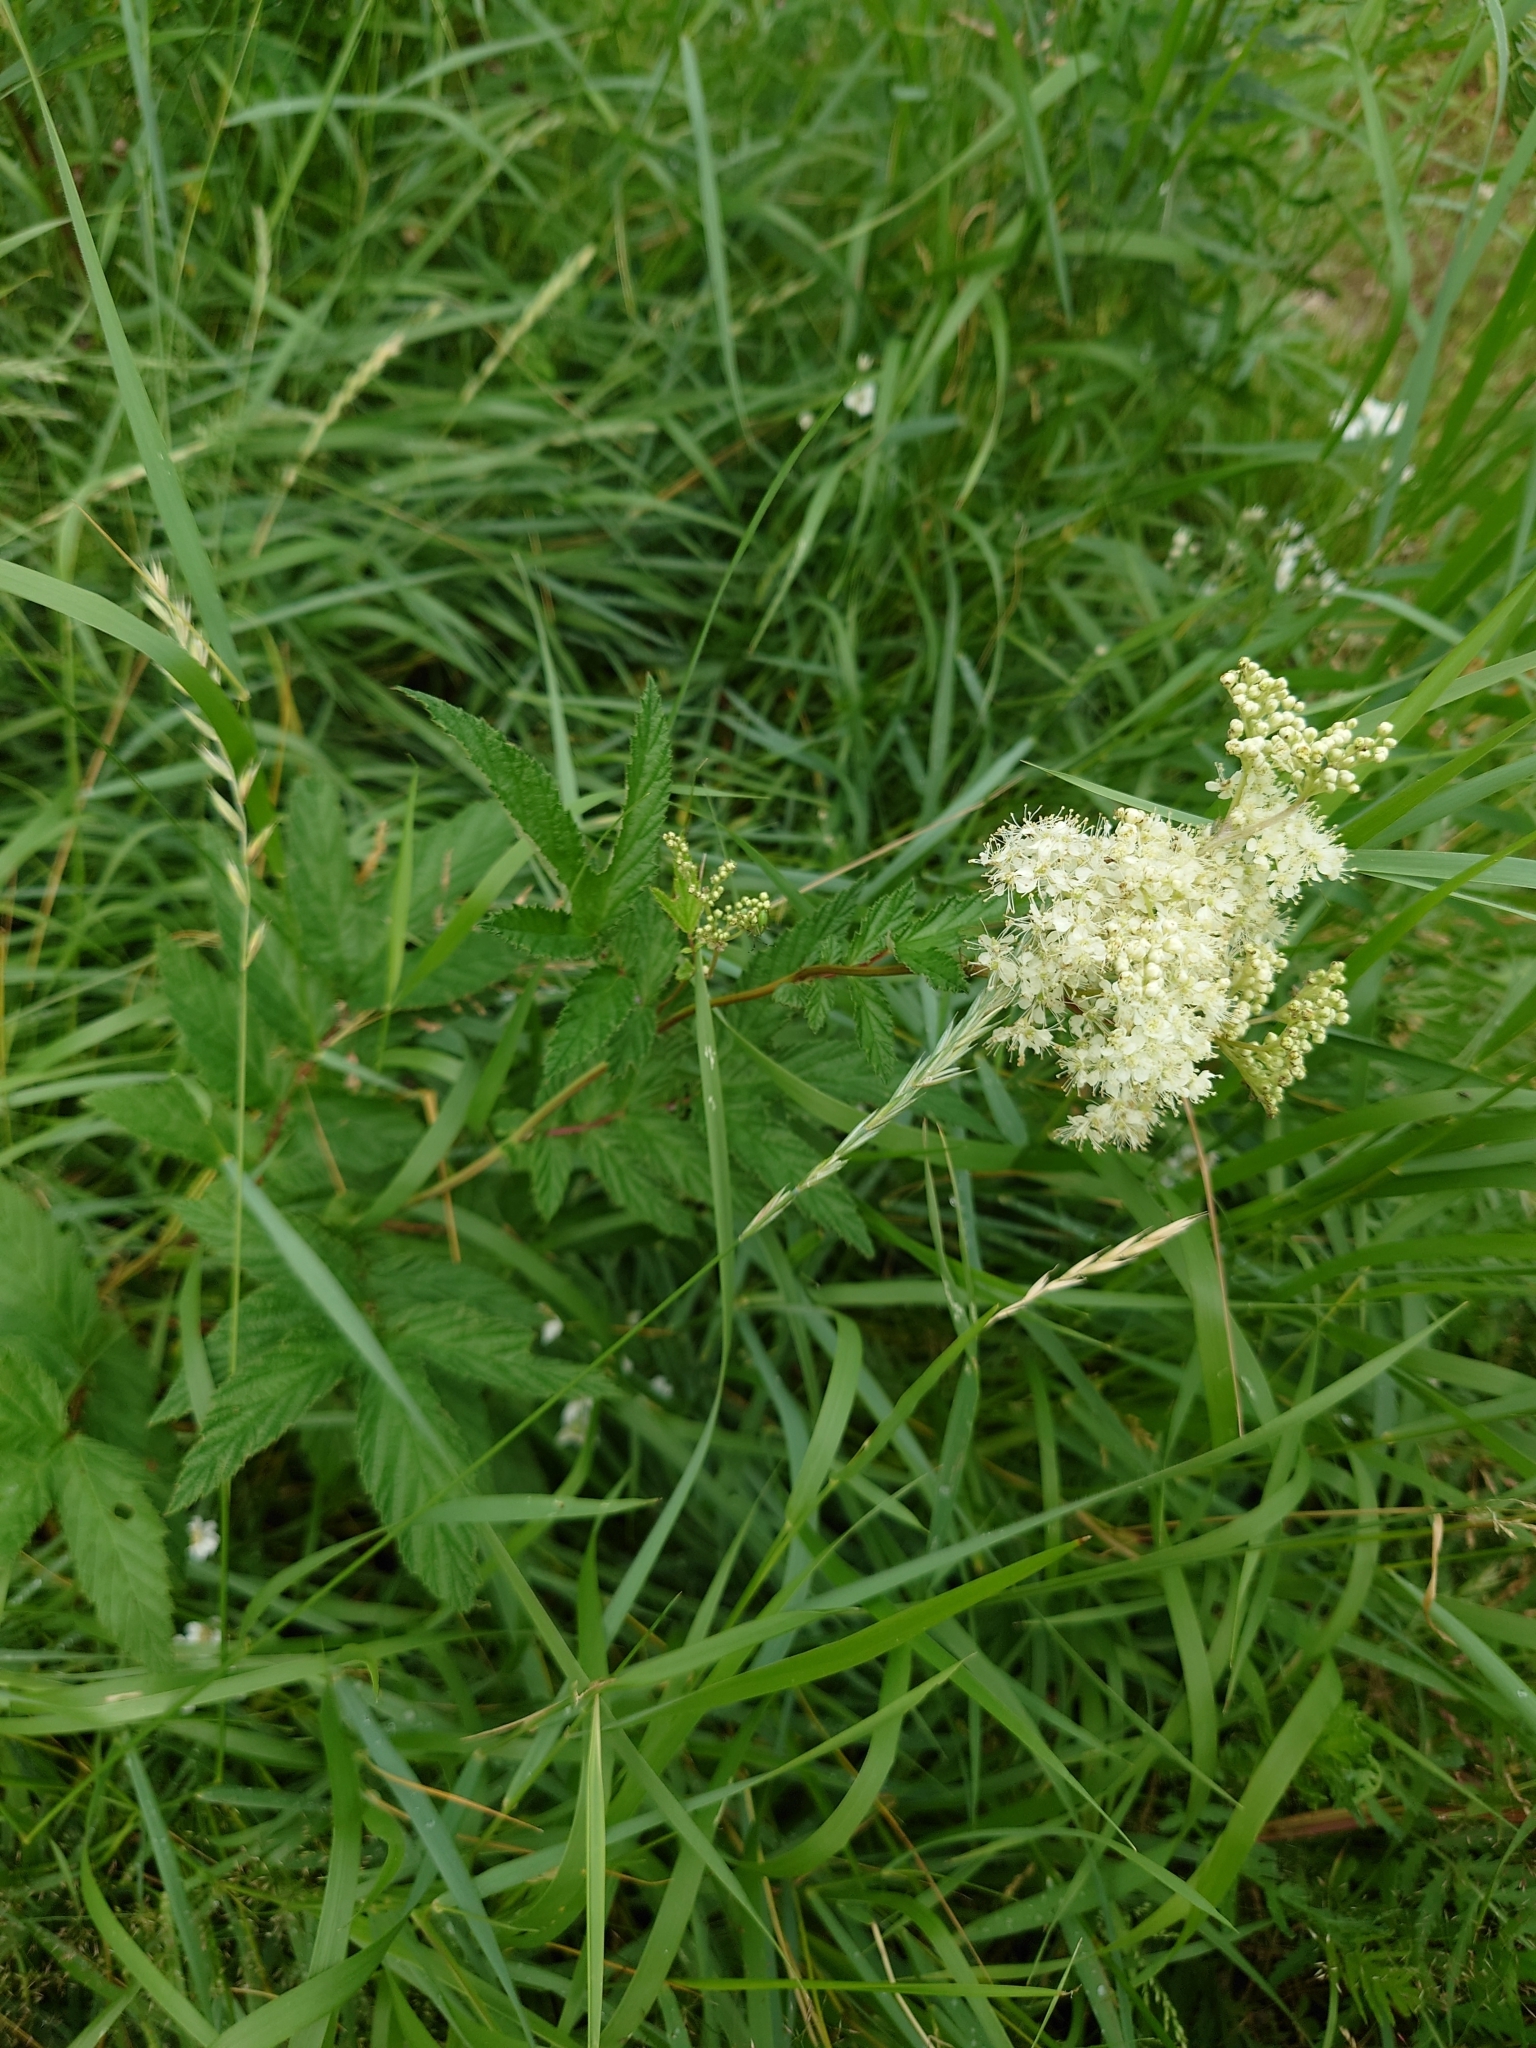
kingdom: Plantae
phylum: Tracheophyta
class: Magnoliopsida
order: Rosales
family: Rosaceae
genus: Filipendula
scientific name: Filipendula ulmaria
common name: Meadowsweet
